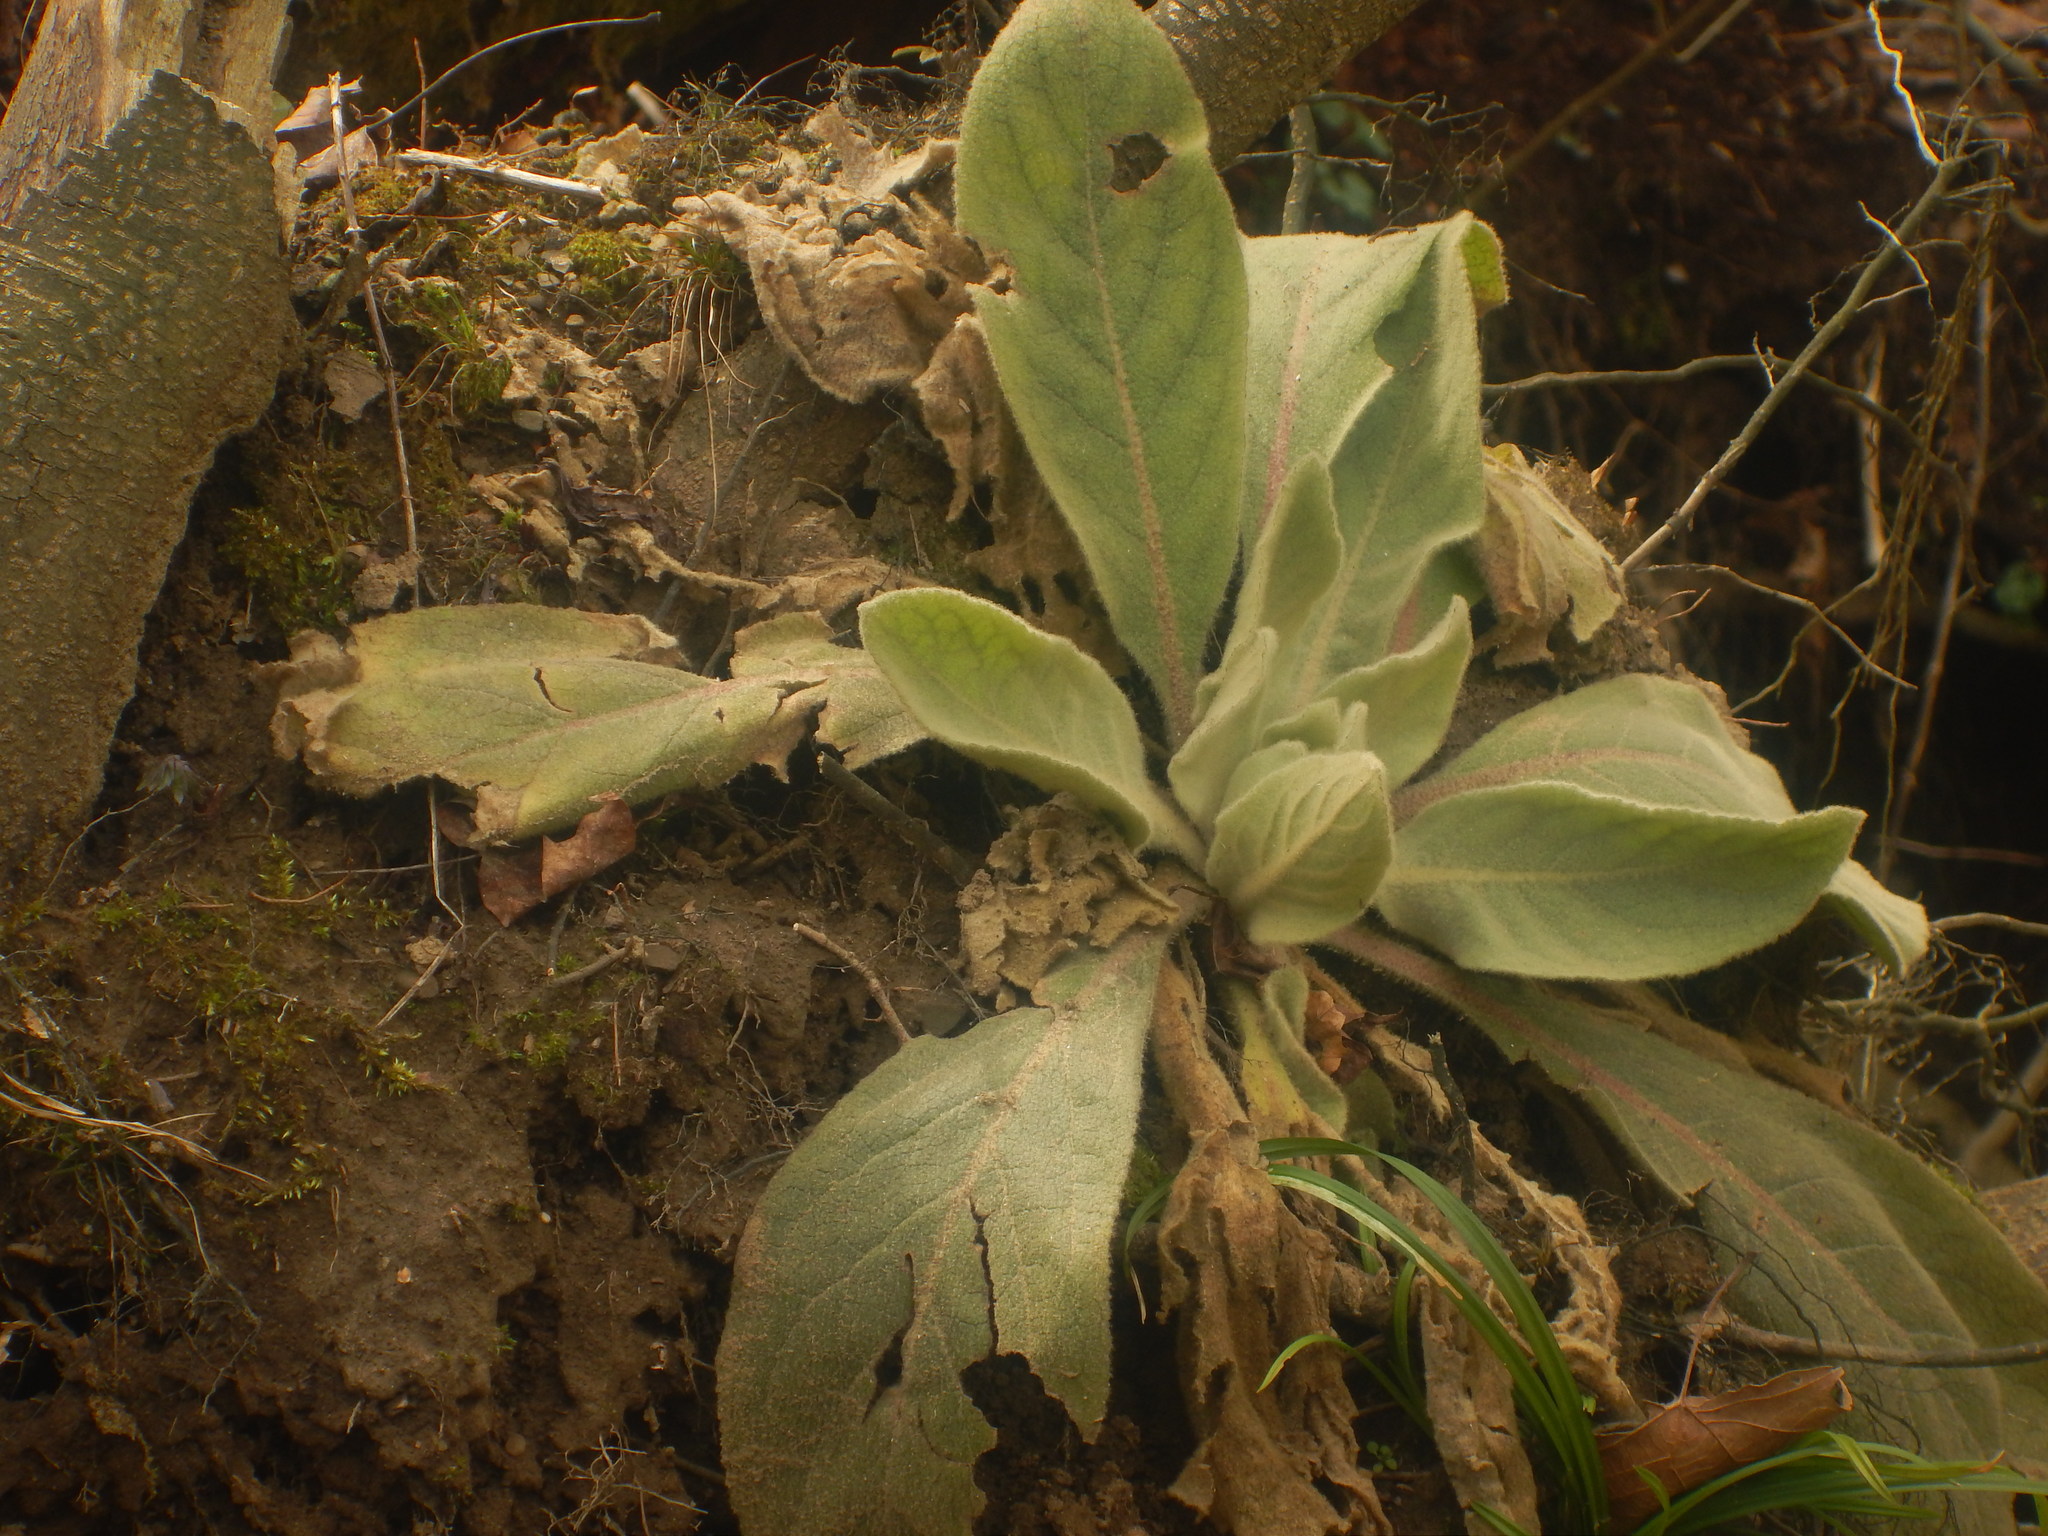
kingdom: Plantae
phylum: Tracheophyta
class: Magnoliopsida
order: Lamiales
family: Scrophulariaceae
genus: Verbascum
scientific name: Verbascum thapsus
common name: Common mullein
